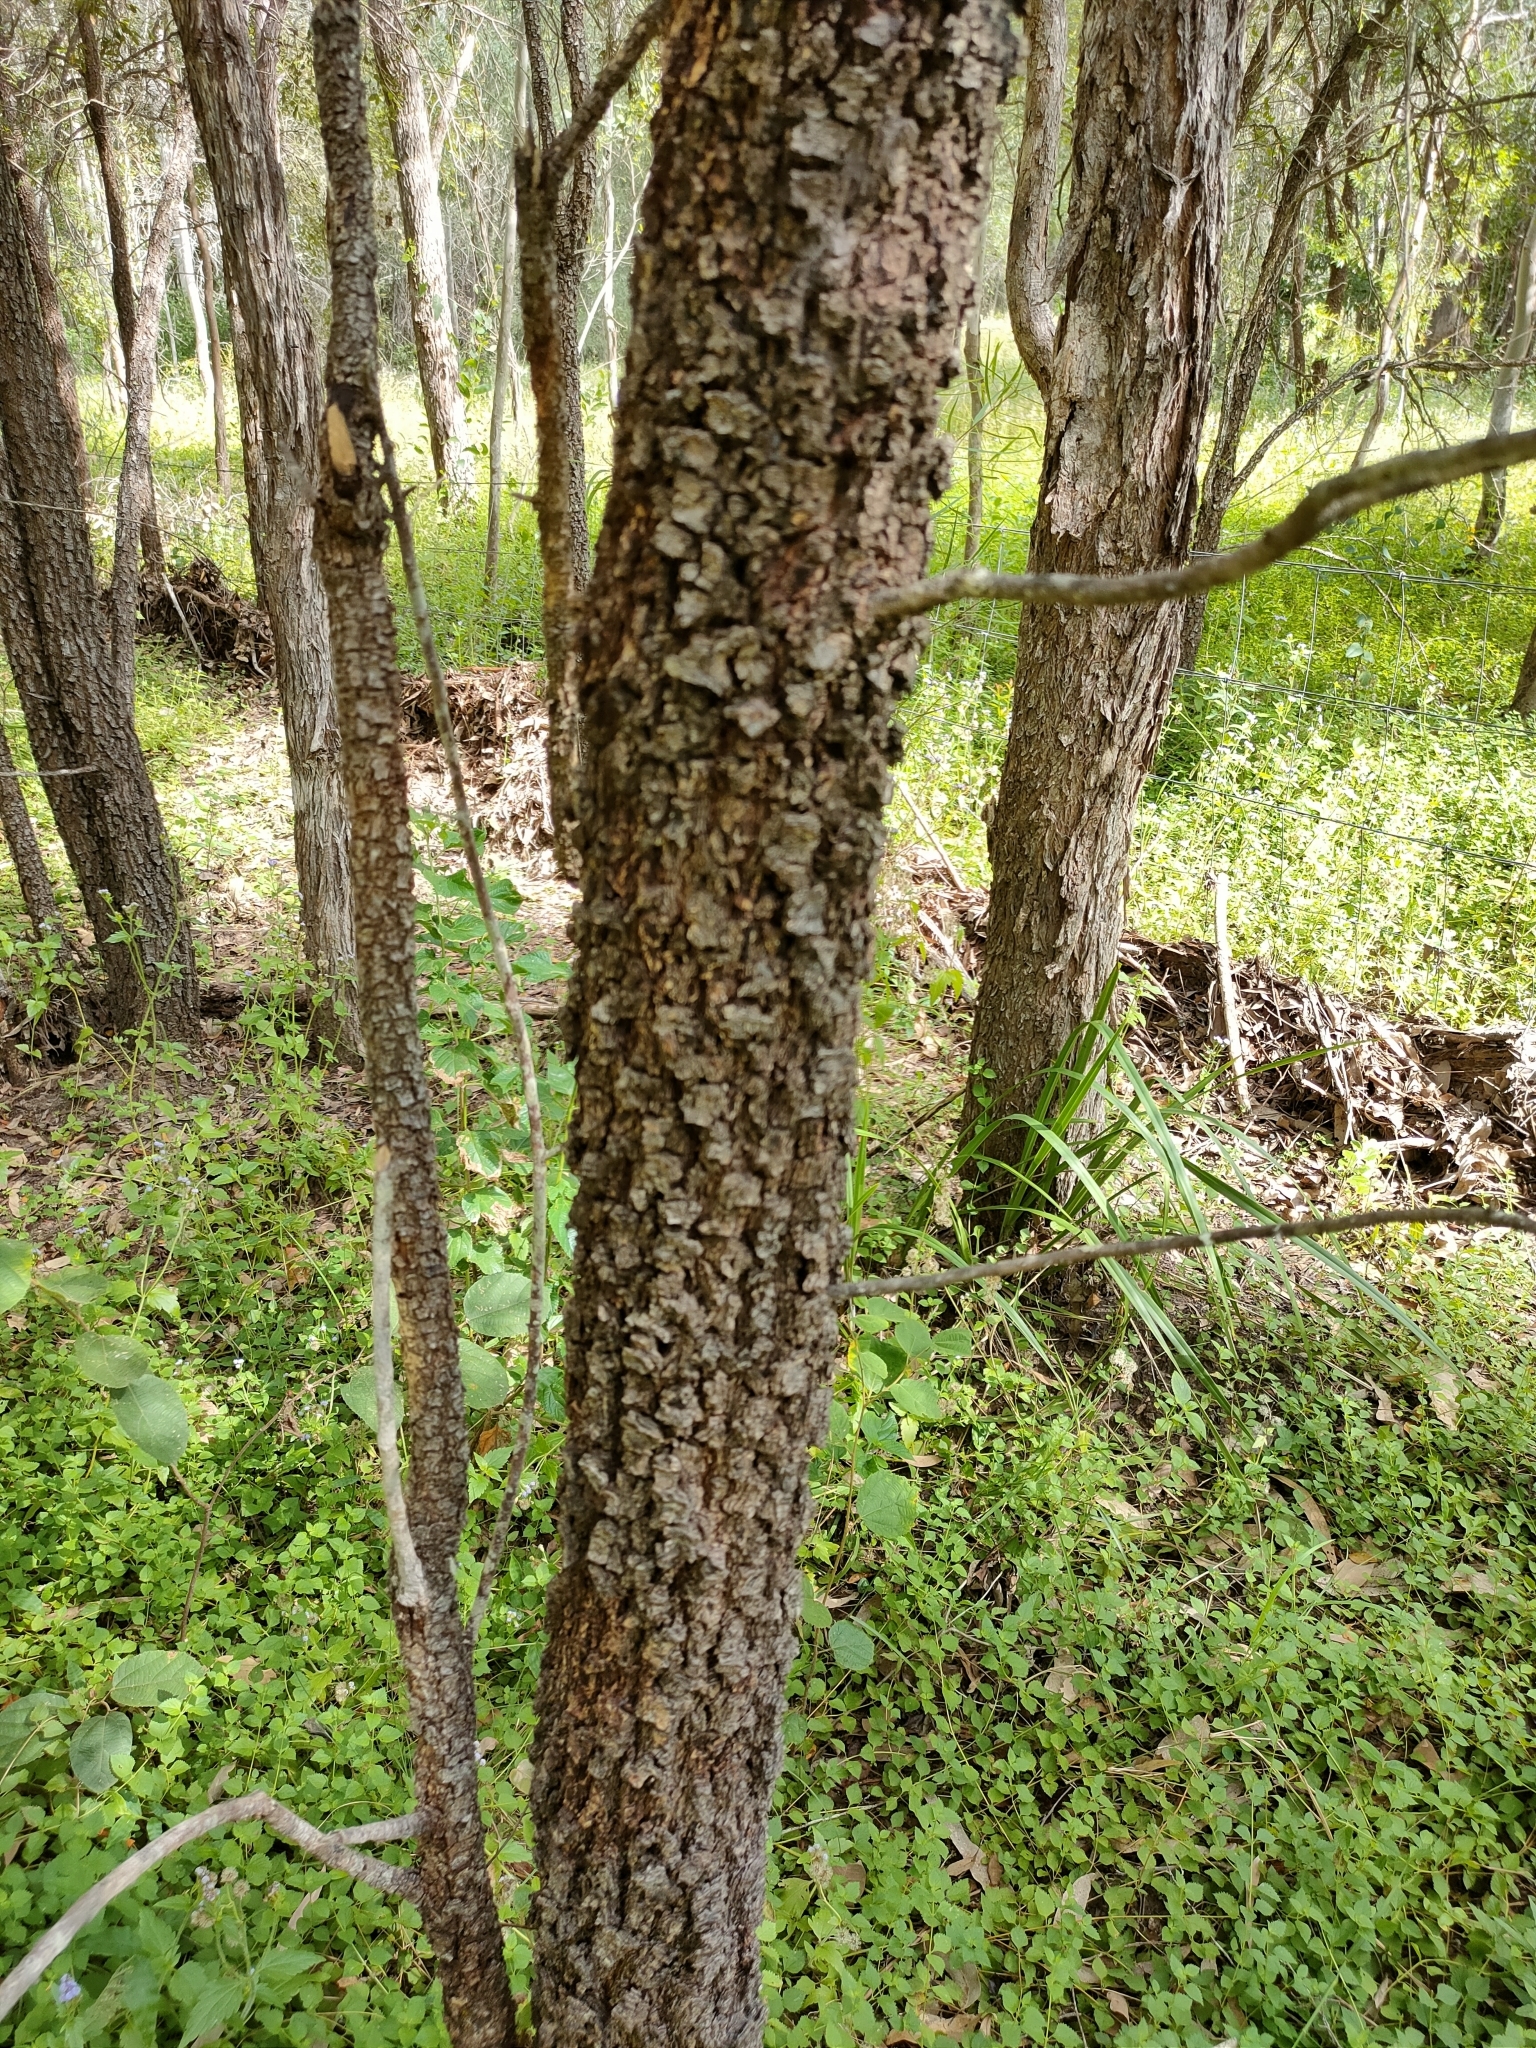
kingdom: Plantae
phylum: Tracheophyta
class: Magnoliopsida
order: Malpighiales
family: Picrodendraceae
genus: Petalostigma
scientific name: Petalostigma pubescens
